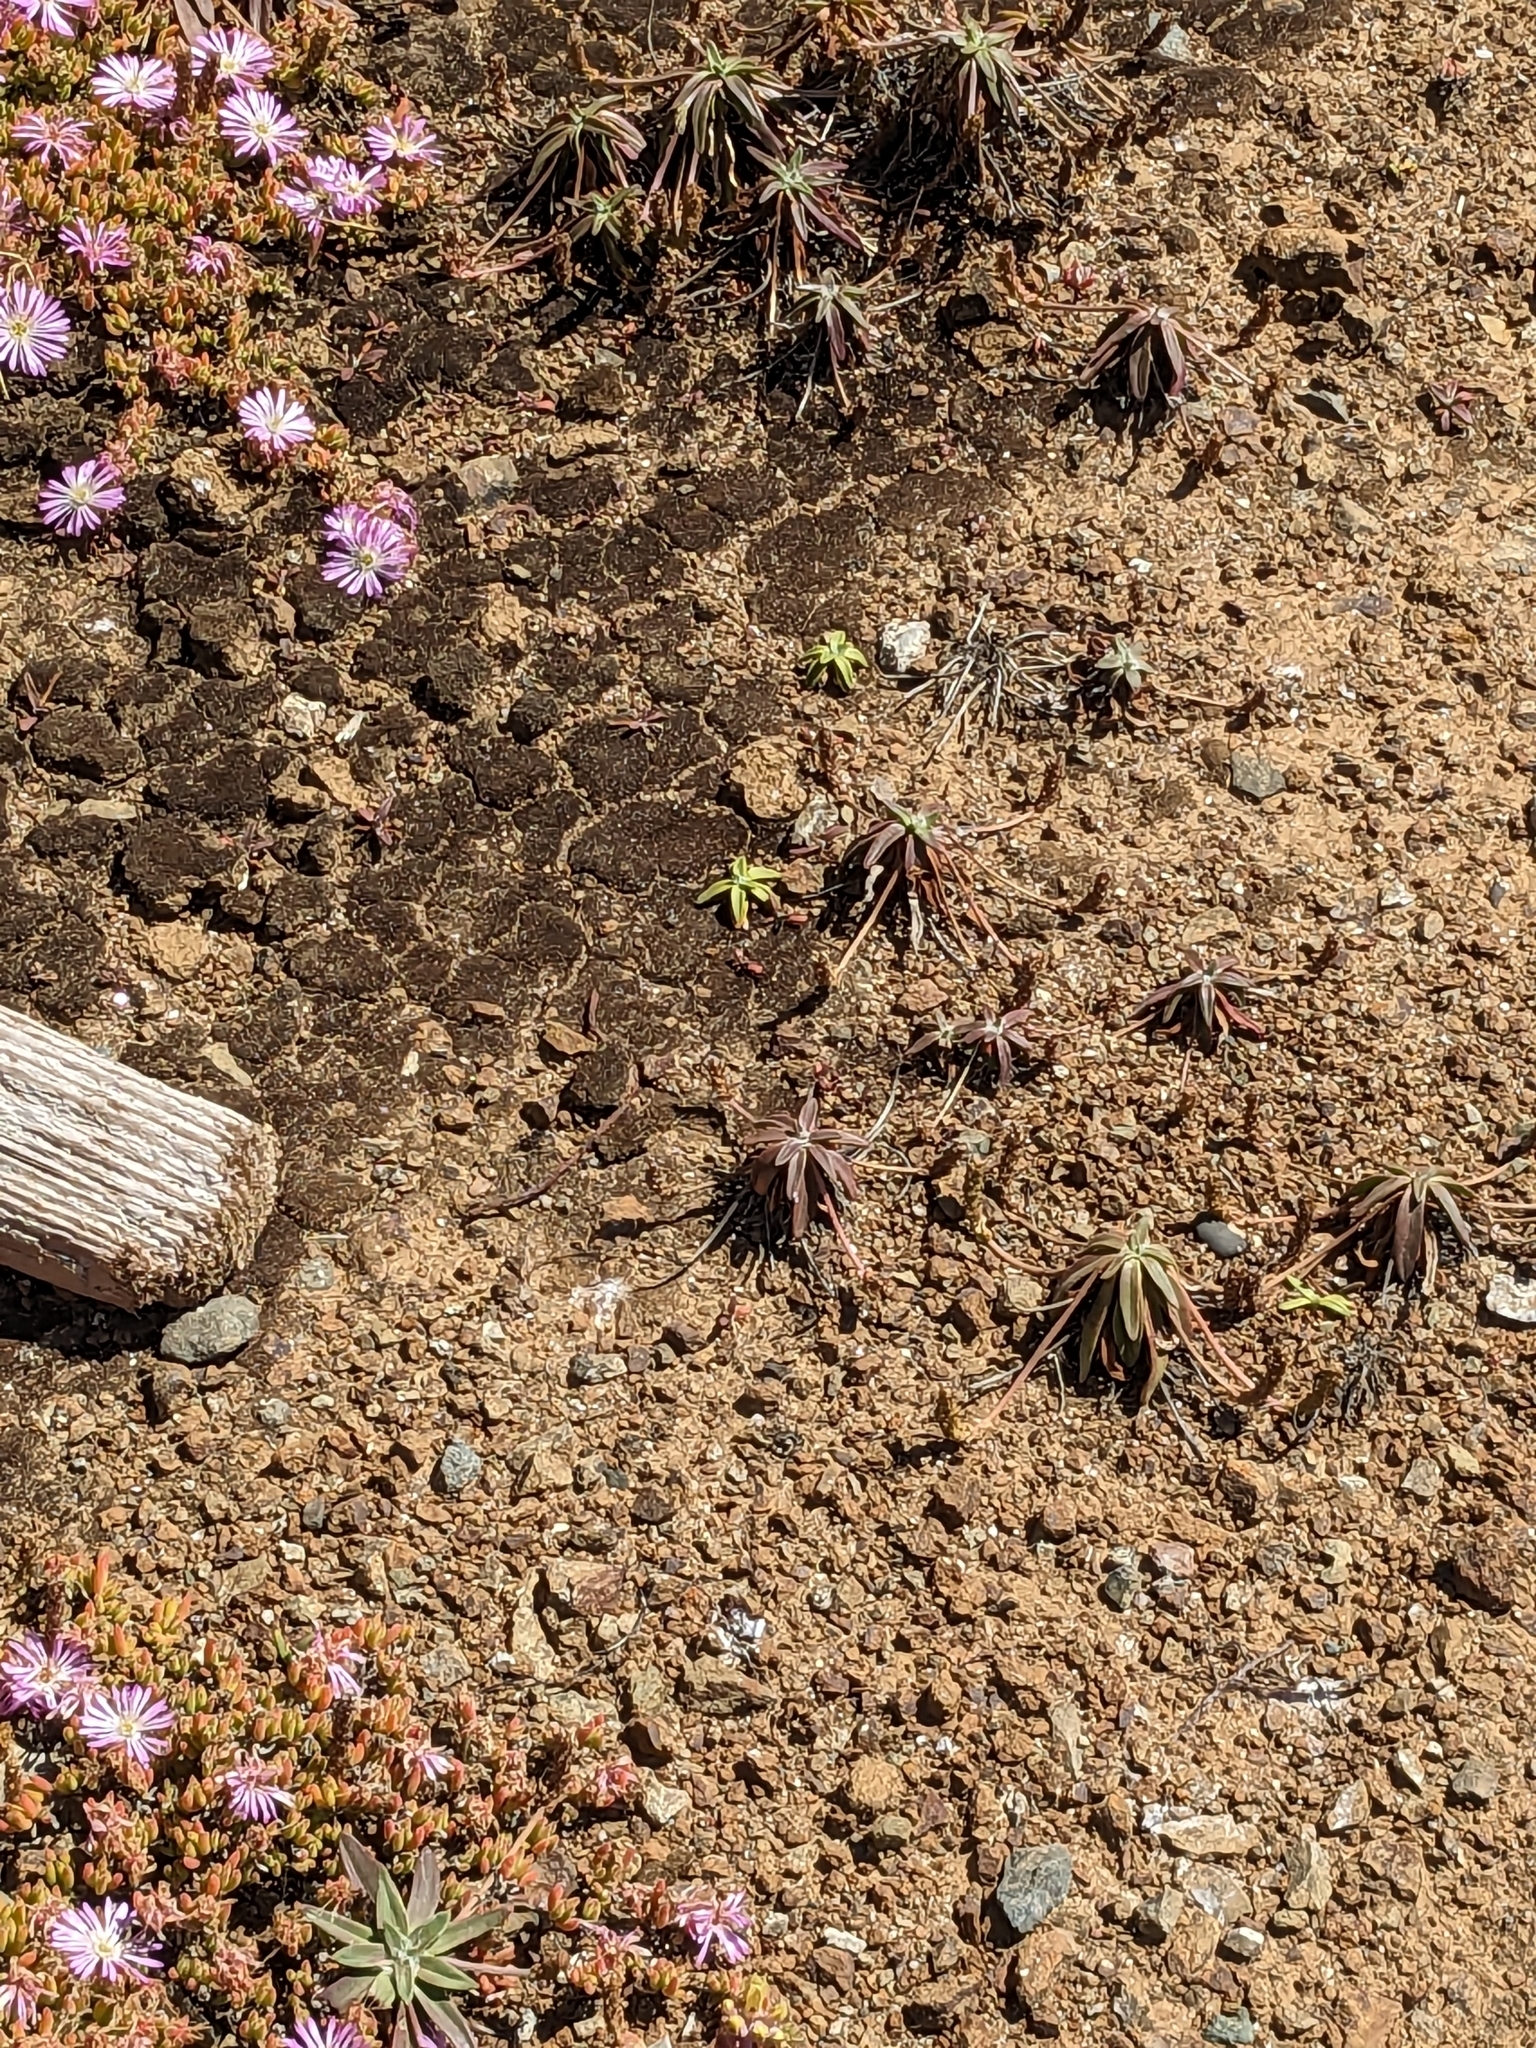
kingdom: Plantae
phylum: Tracheophyta
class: Magnoliopsida
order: Lamiales
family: Plantaginaceae
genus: Plantago
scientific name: Plantago maritima
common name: Sea plantain
